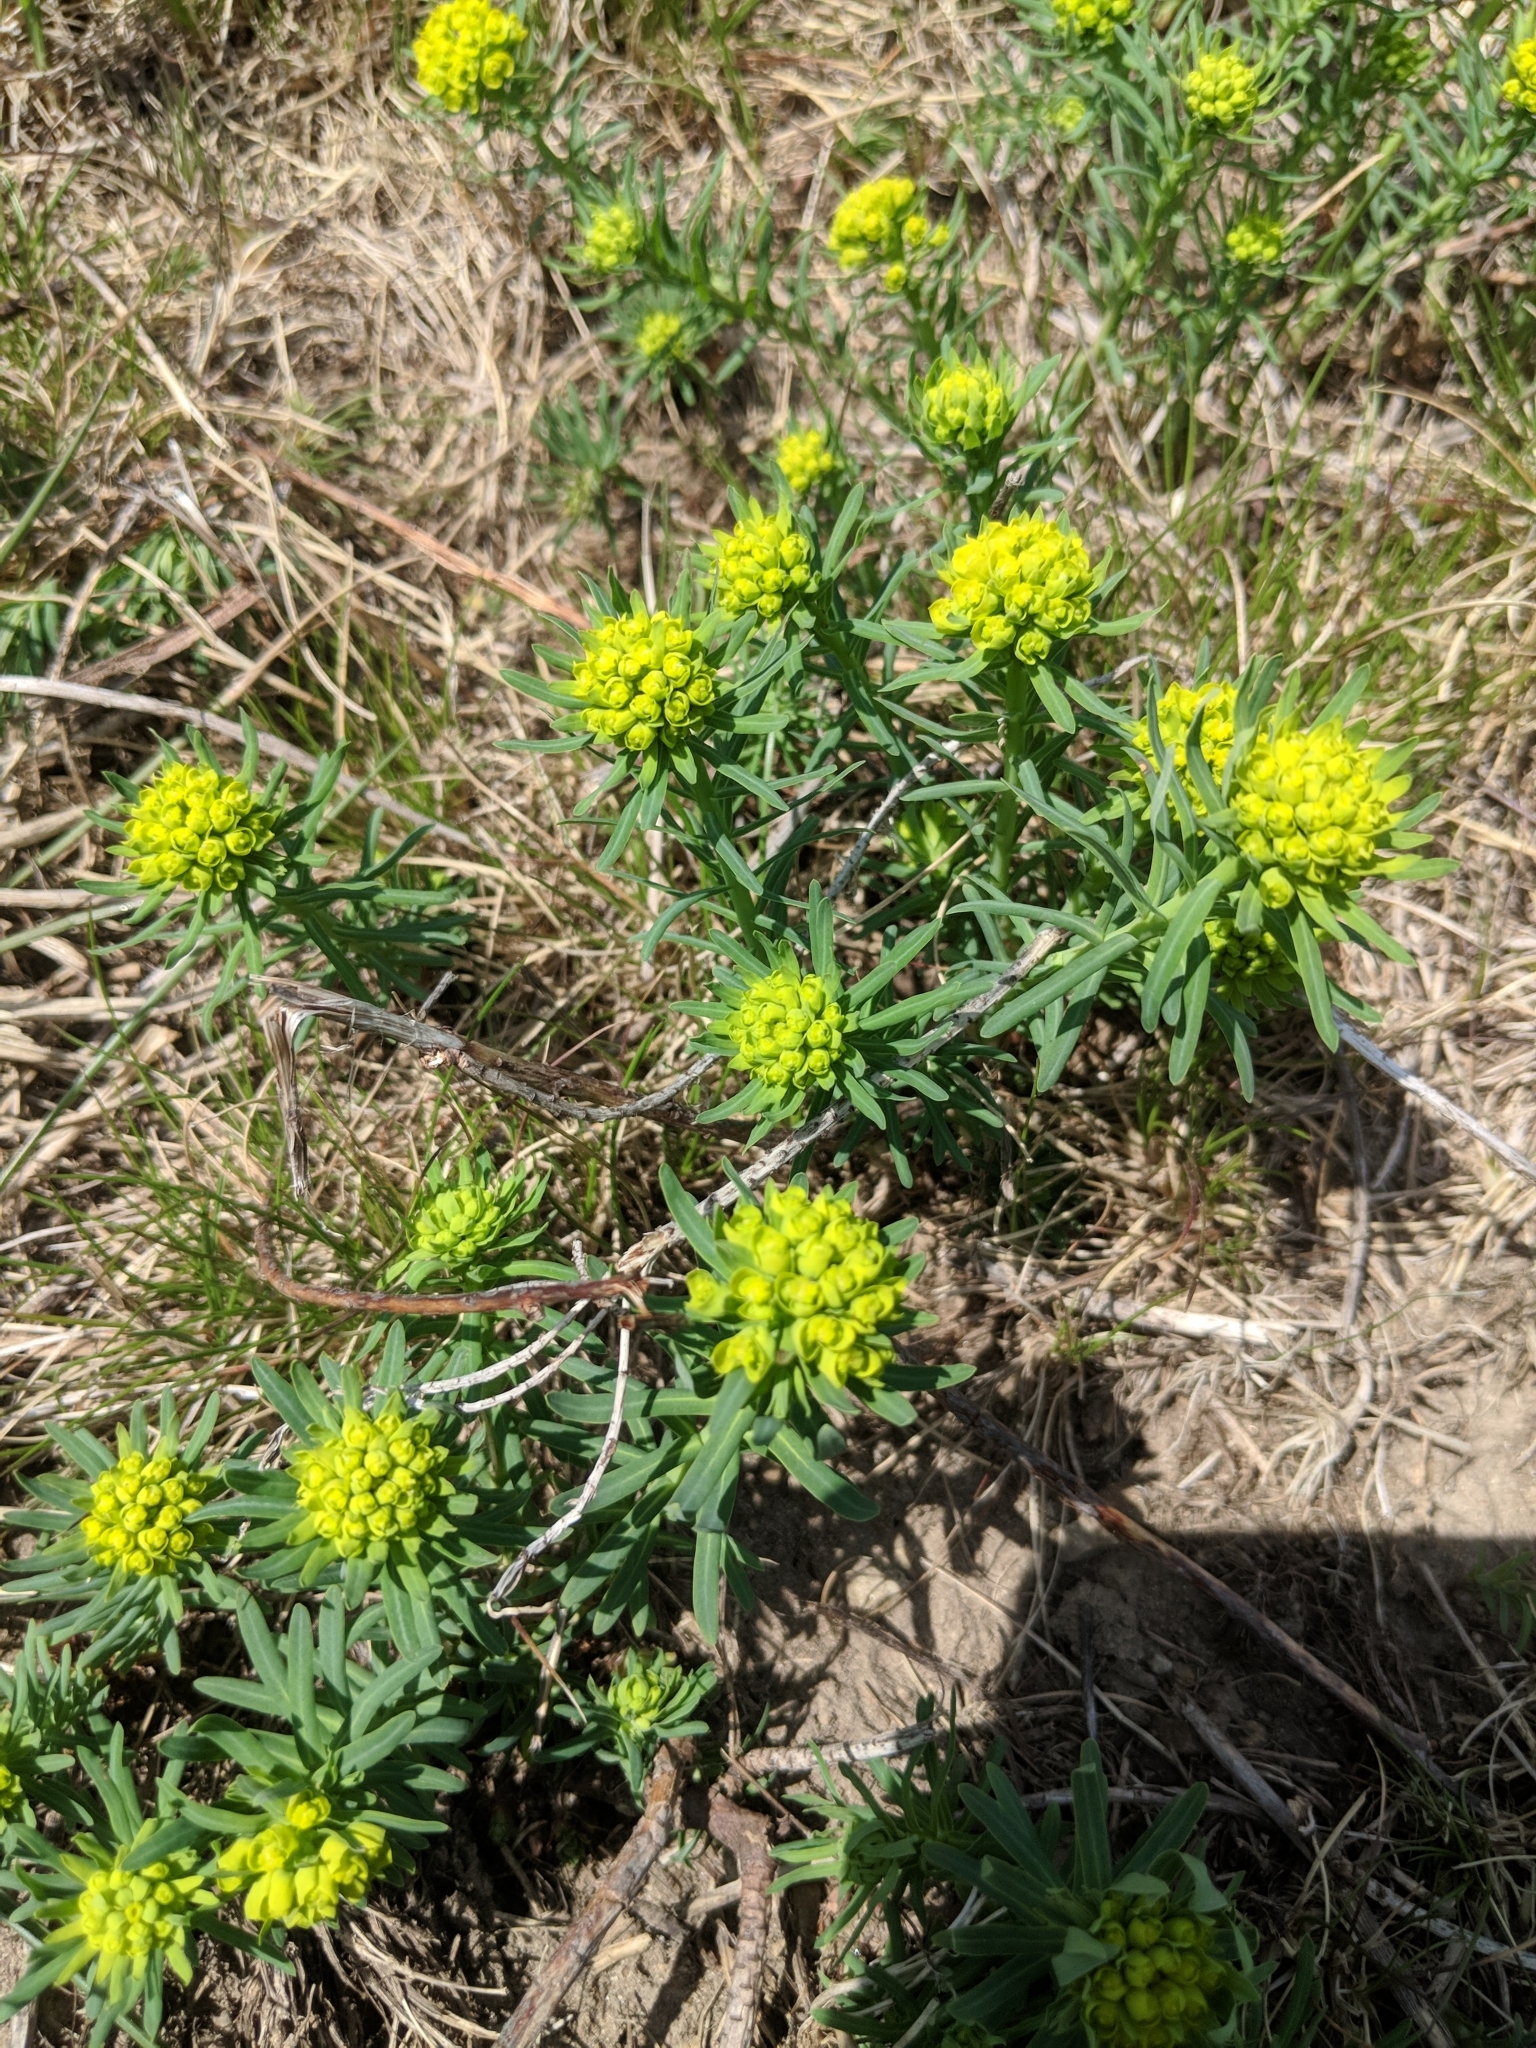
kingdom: Plantae
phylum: Tracheophyta
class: Magnoliopsida
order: Malpighiales
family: Euphorbiaceae
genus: Euphorbia
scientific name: Euphorbia cyparissias
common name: Cypress spurge
